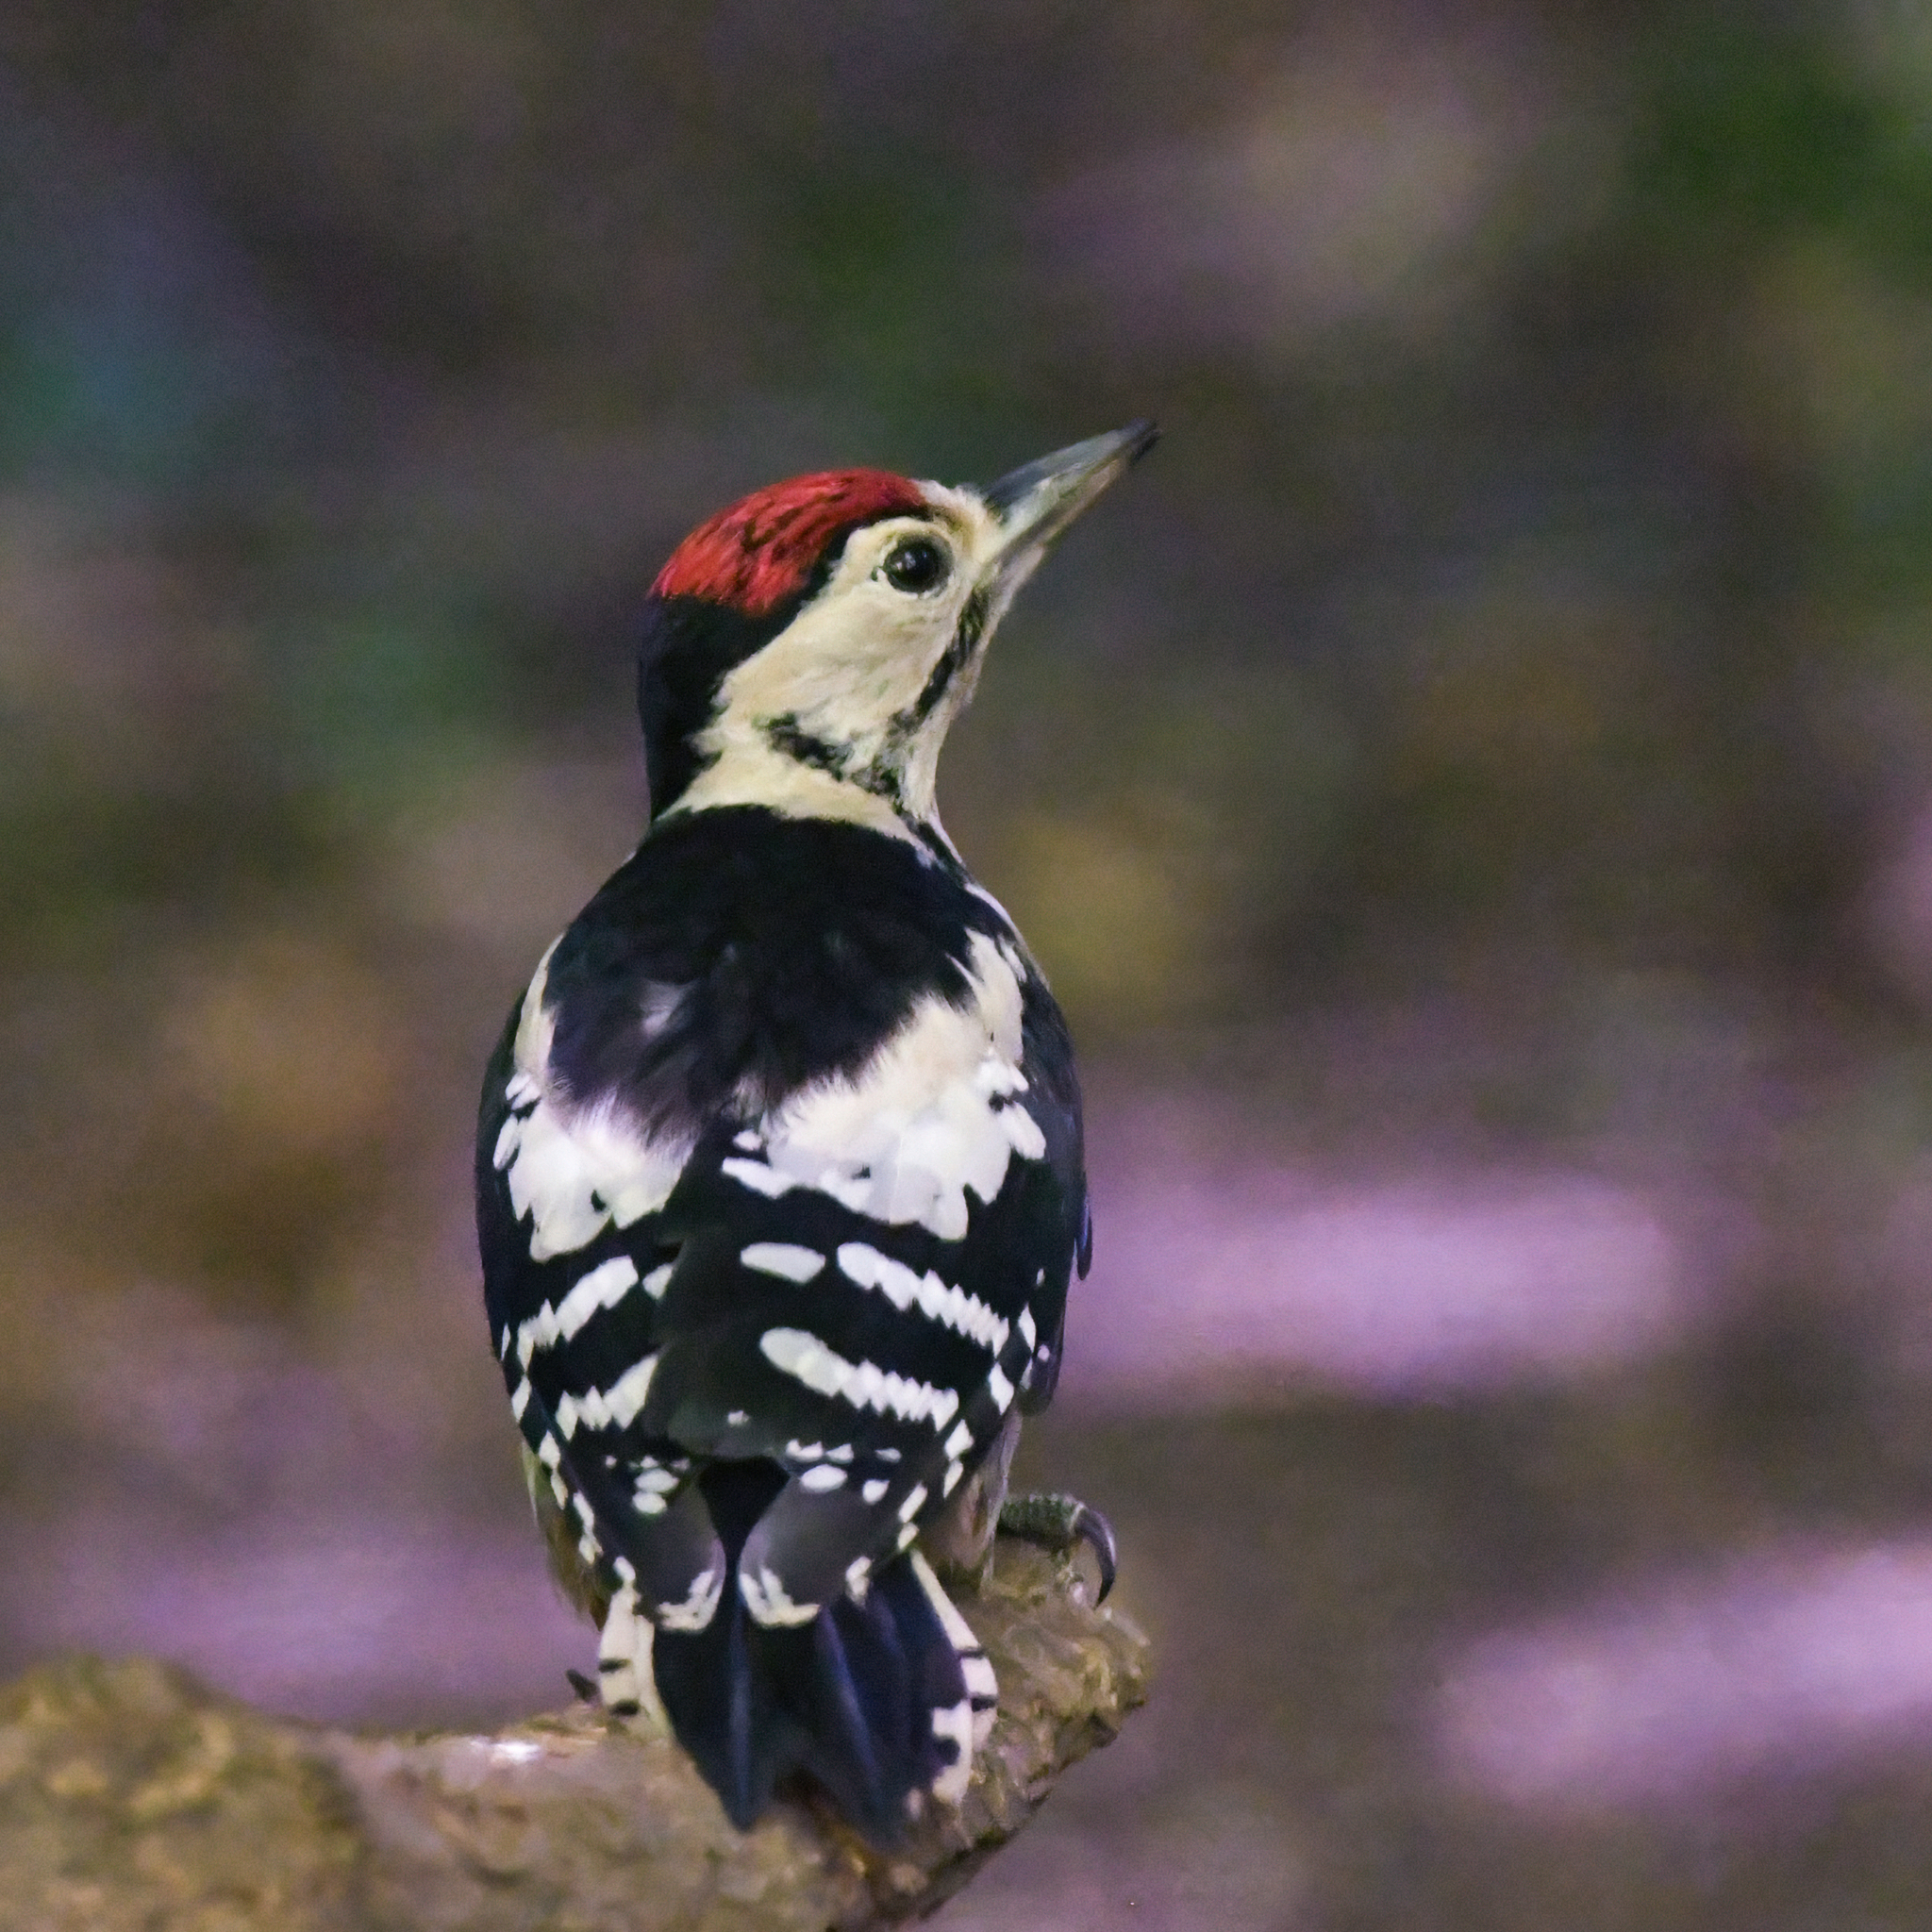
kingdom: Animalia
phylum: Chordata
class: Aves
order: Piciformes
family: Picidae
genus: Dendrocopos
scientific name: Dendrocopos major
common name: Great spotted woodpecker
